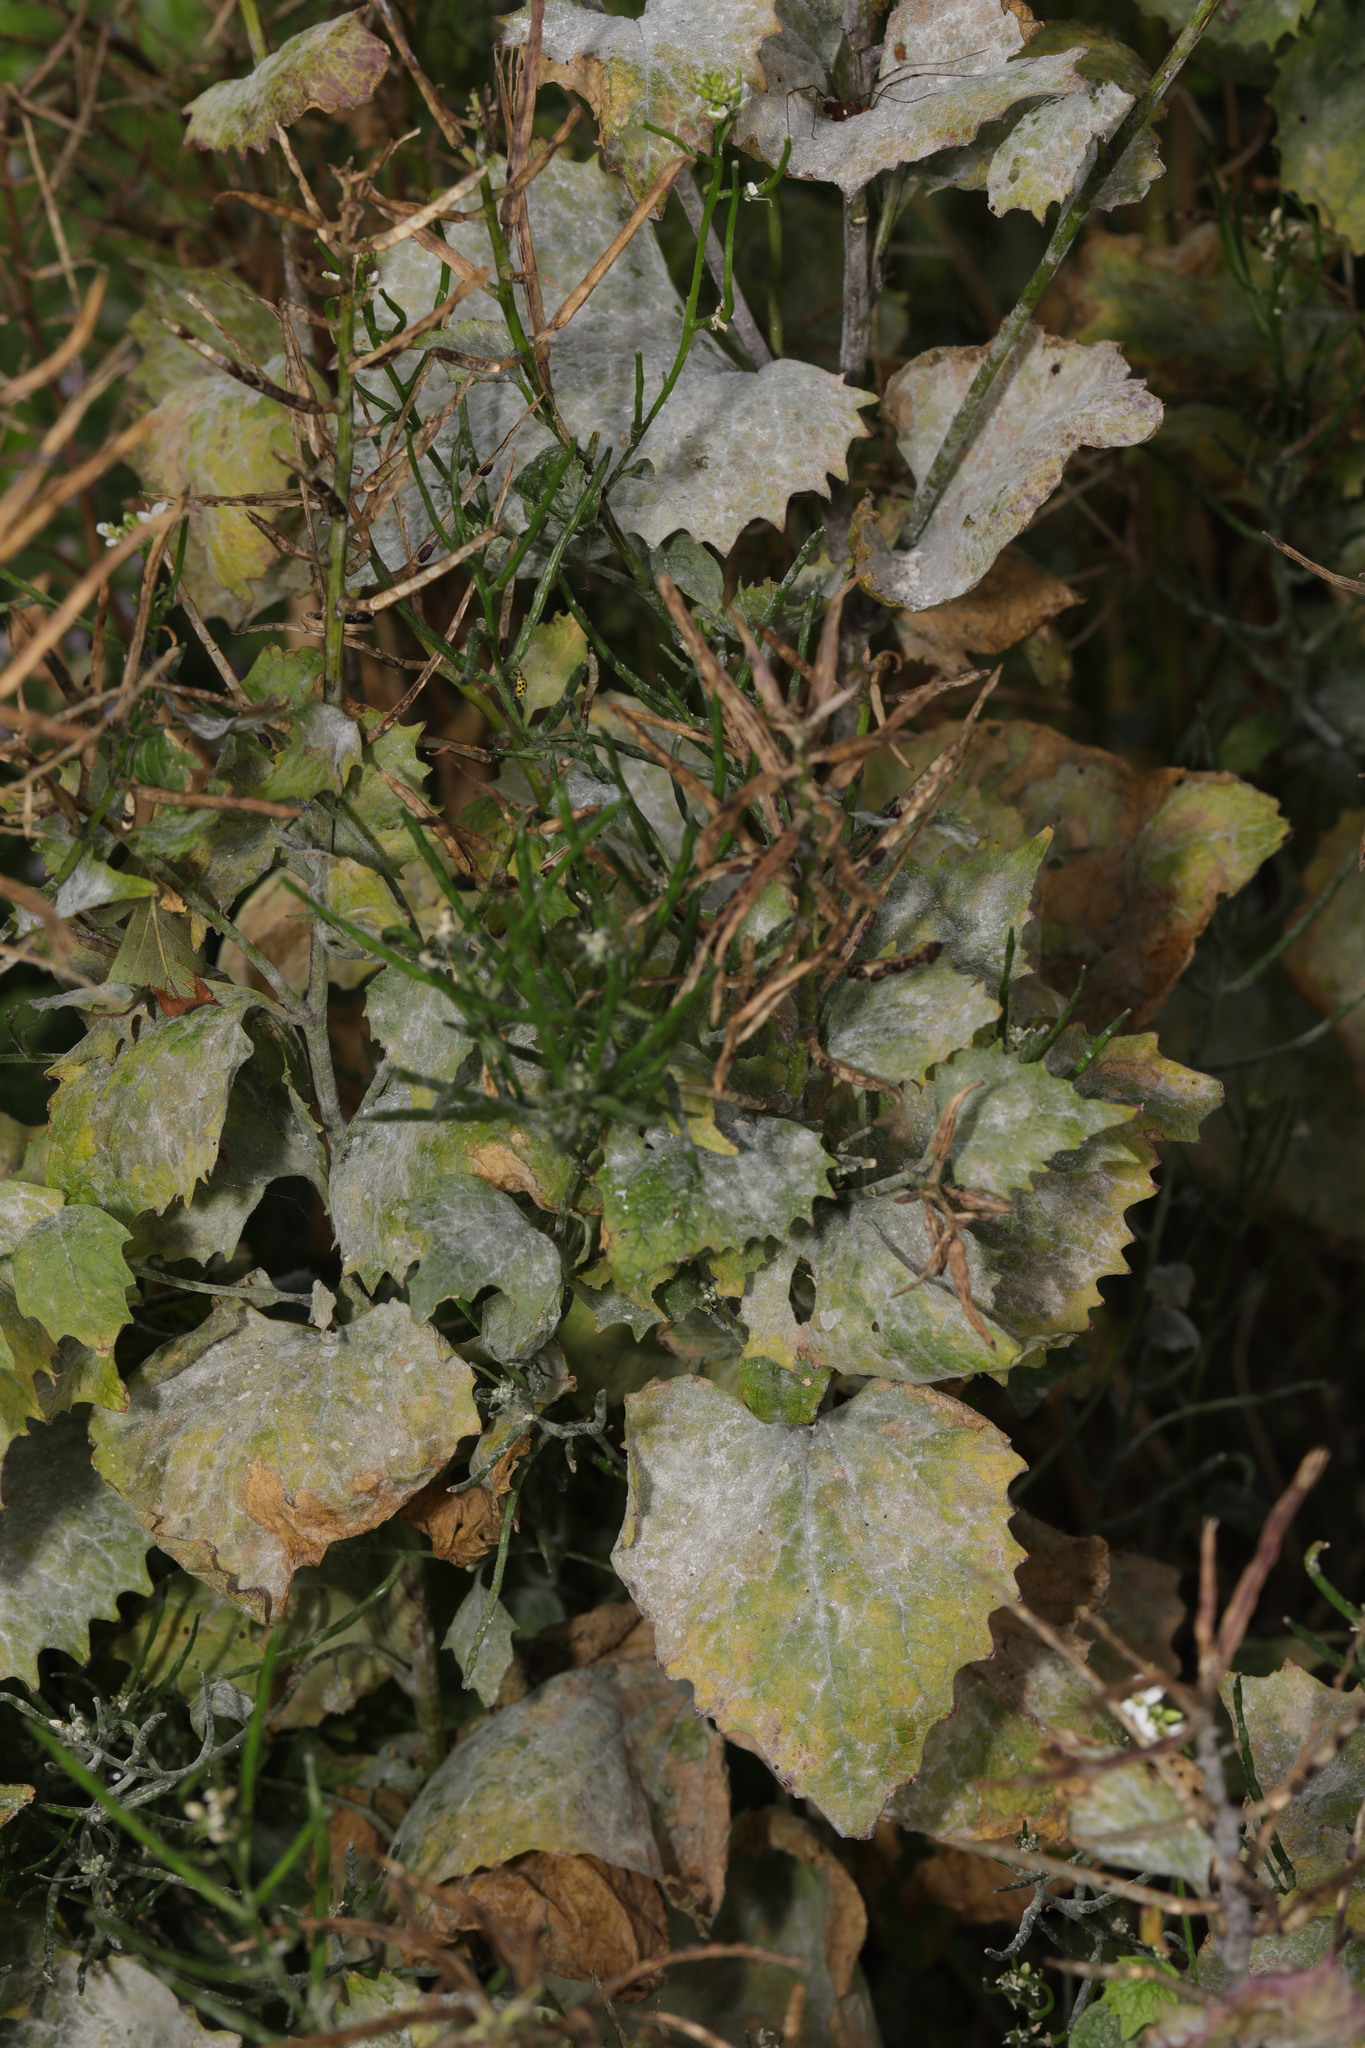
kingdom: Plantae
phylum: Tracheophyta
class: Magnoliopsida
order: Brassicales
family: Brassicaceae
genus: Alliaria
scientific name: Alliaria petiolata
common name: Garlic mustard
